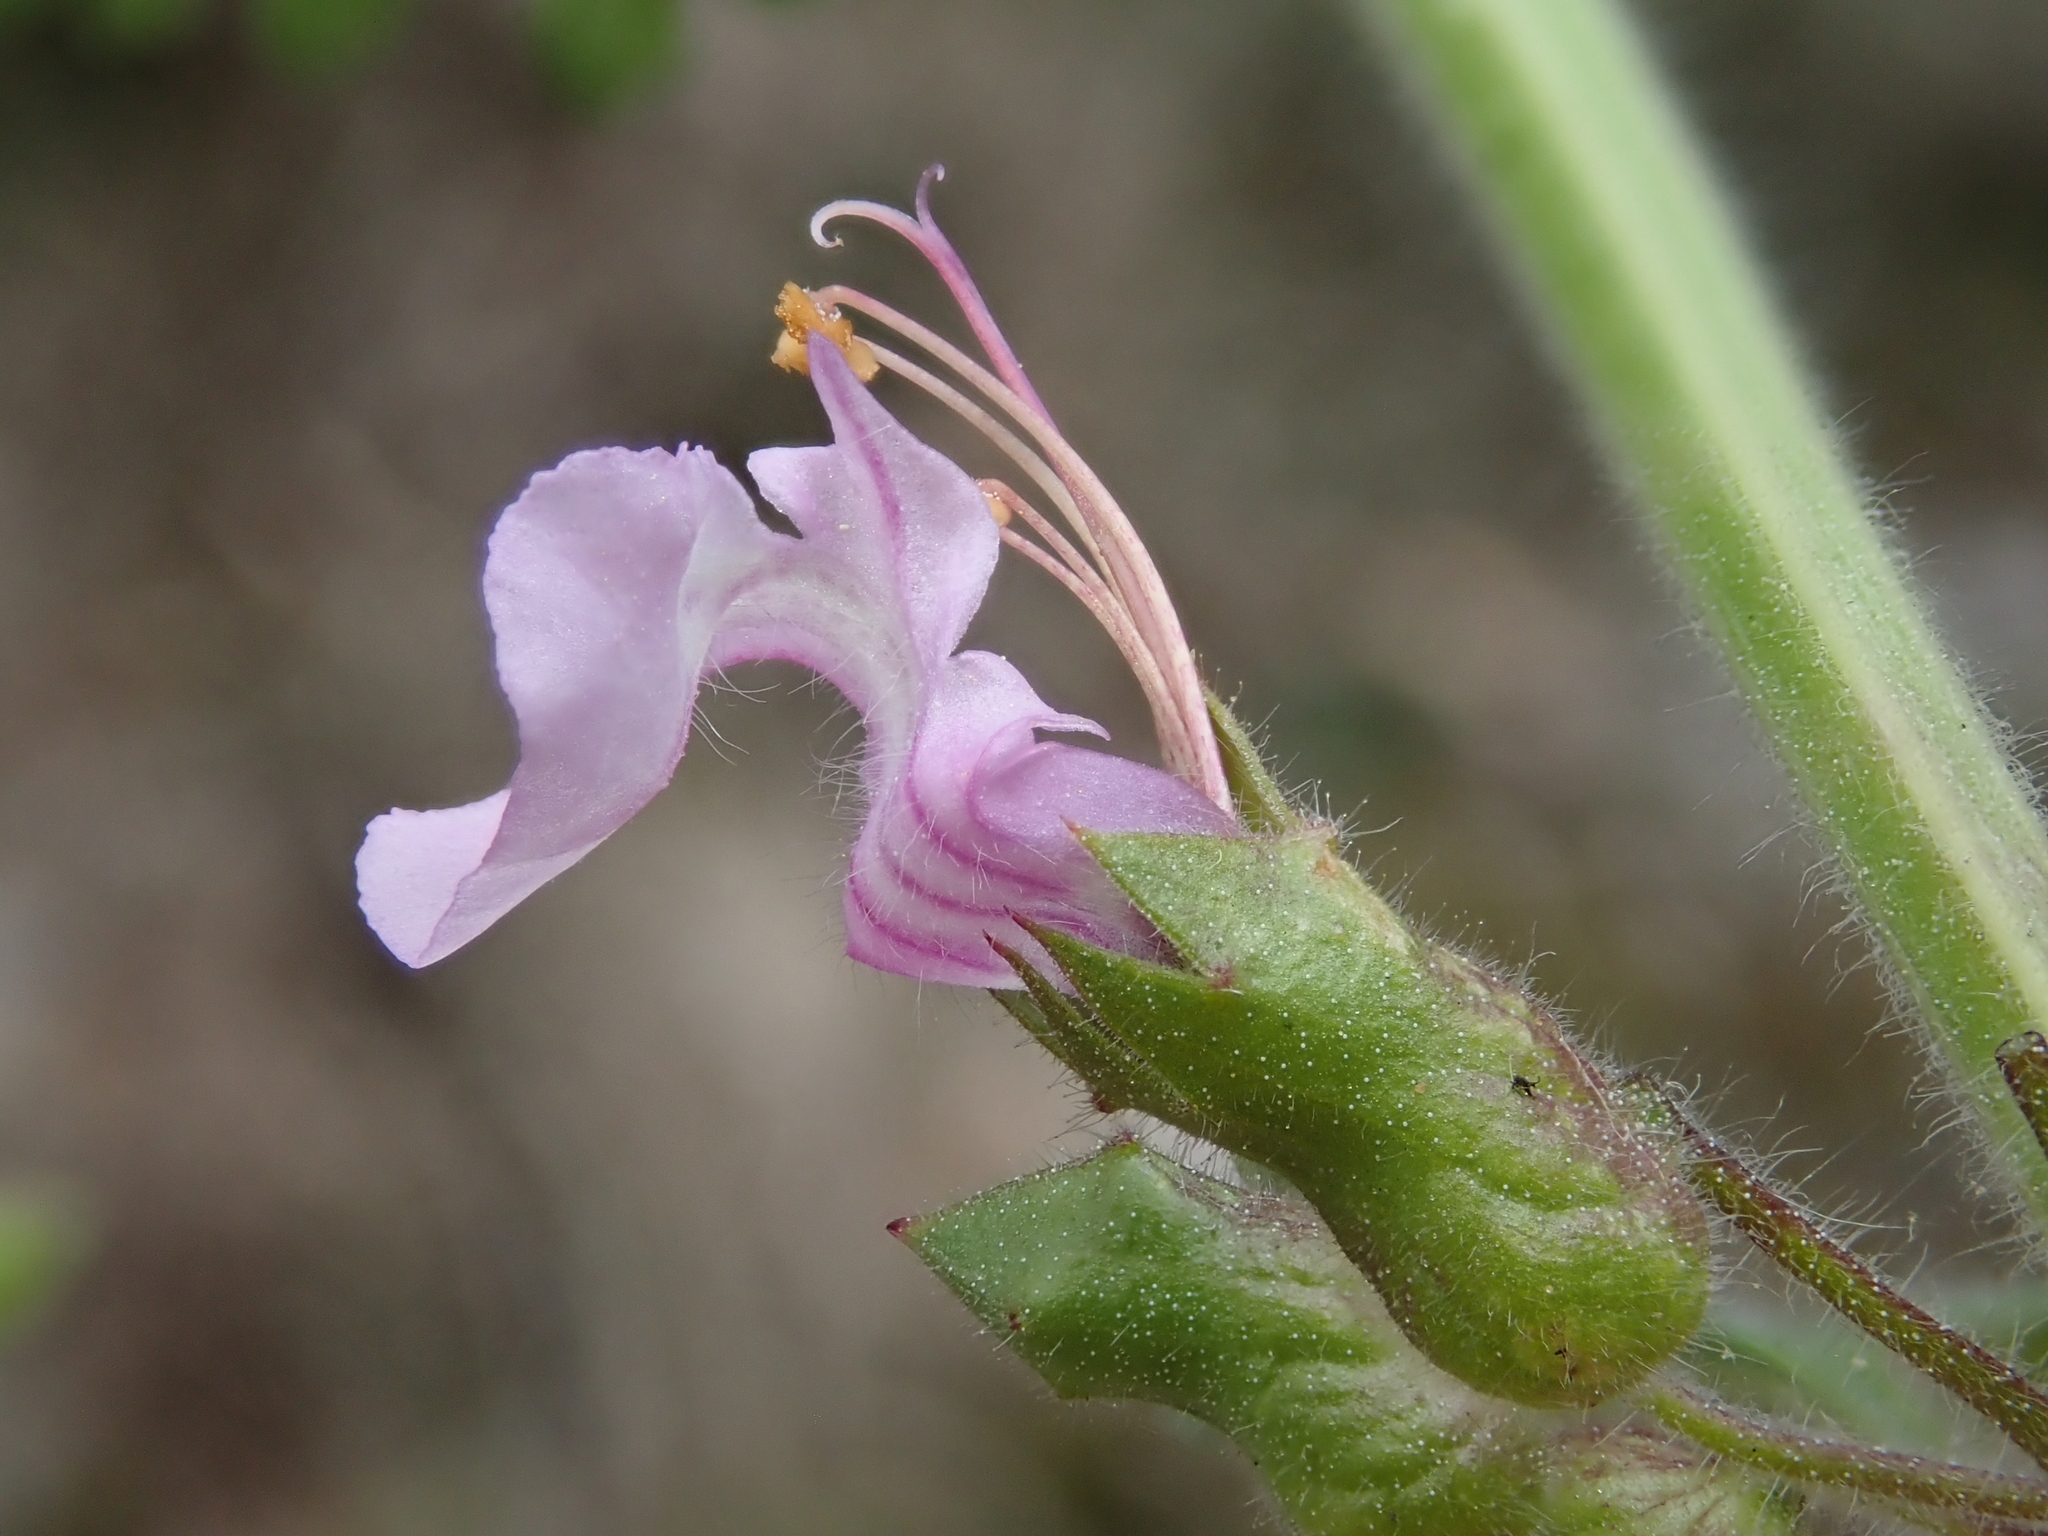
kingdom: Plantae
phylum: Tracheophyta
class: Magnoliopsida
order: Lamiales
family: Lamiaceae
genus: Teucrium
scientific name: Teucrium botrys
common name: Cut-leaved germander
